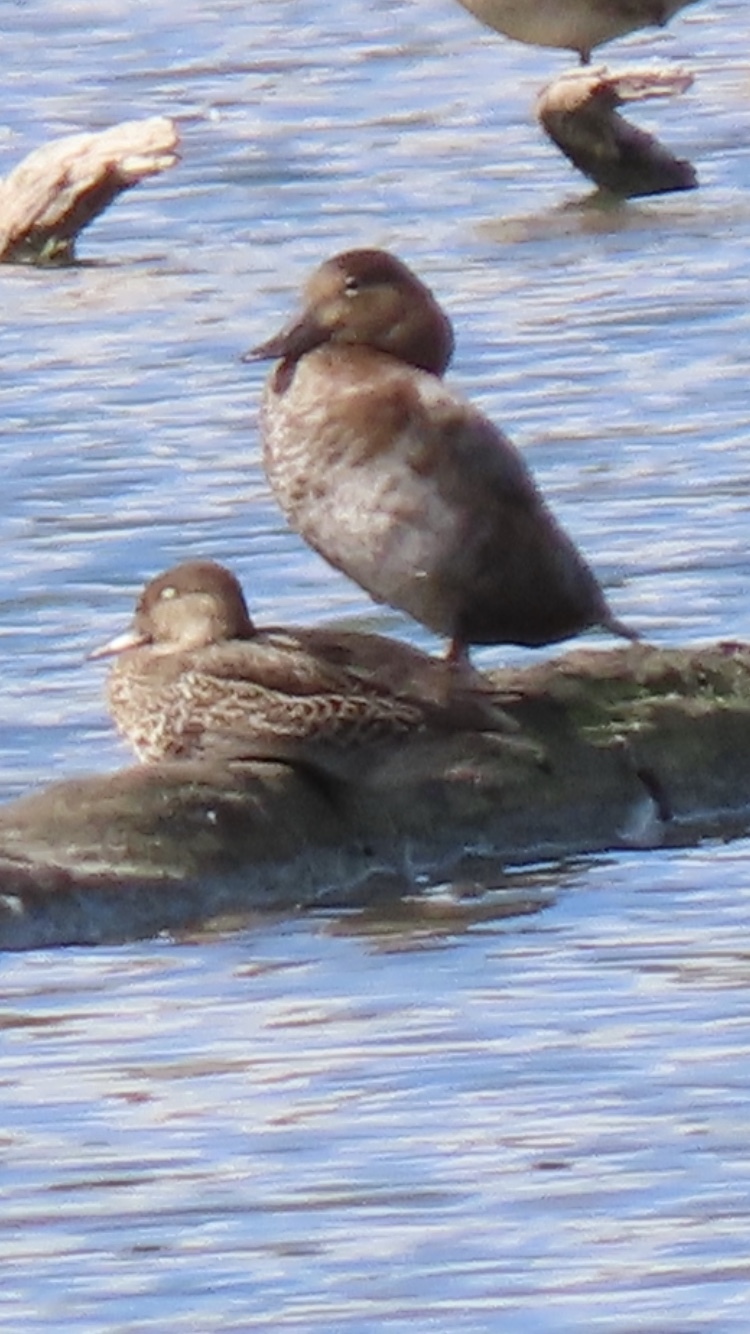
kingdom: Animalia
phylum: Chordata
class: Aves
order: Anseriformes
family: Anatidae
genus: Aythya
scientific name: Aythya ferina
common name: Common pochard
